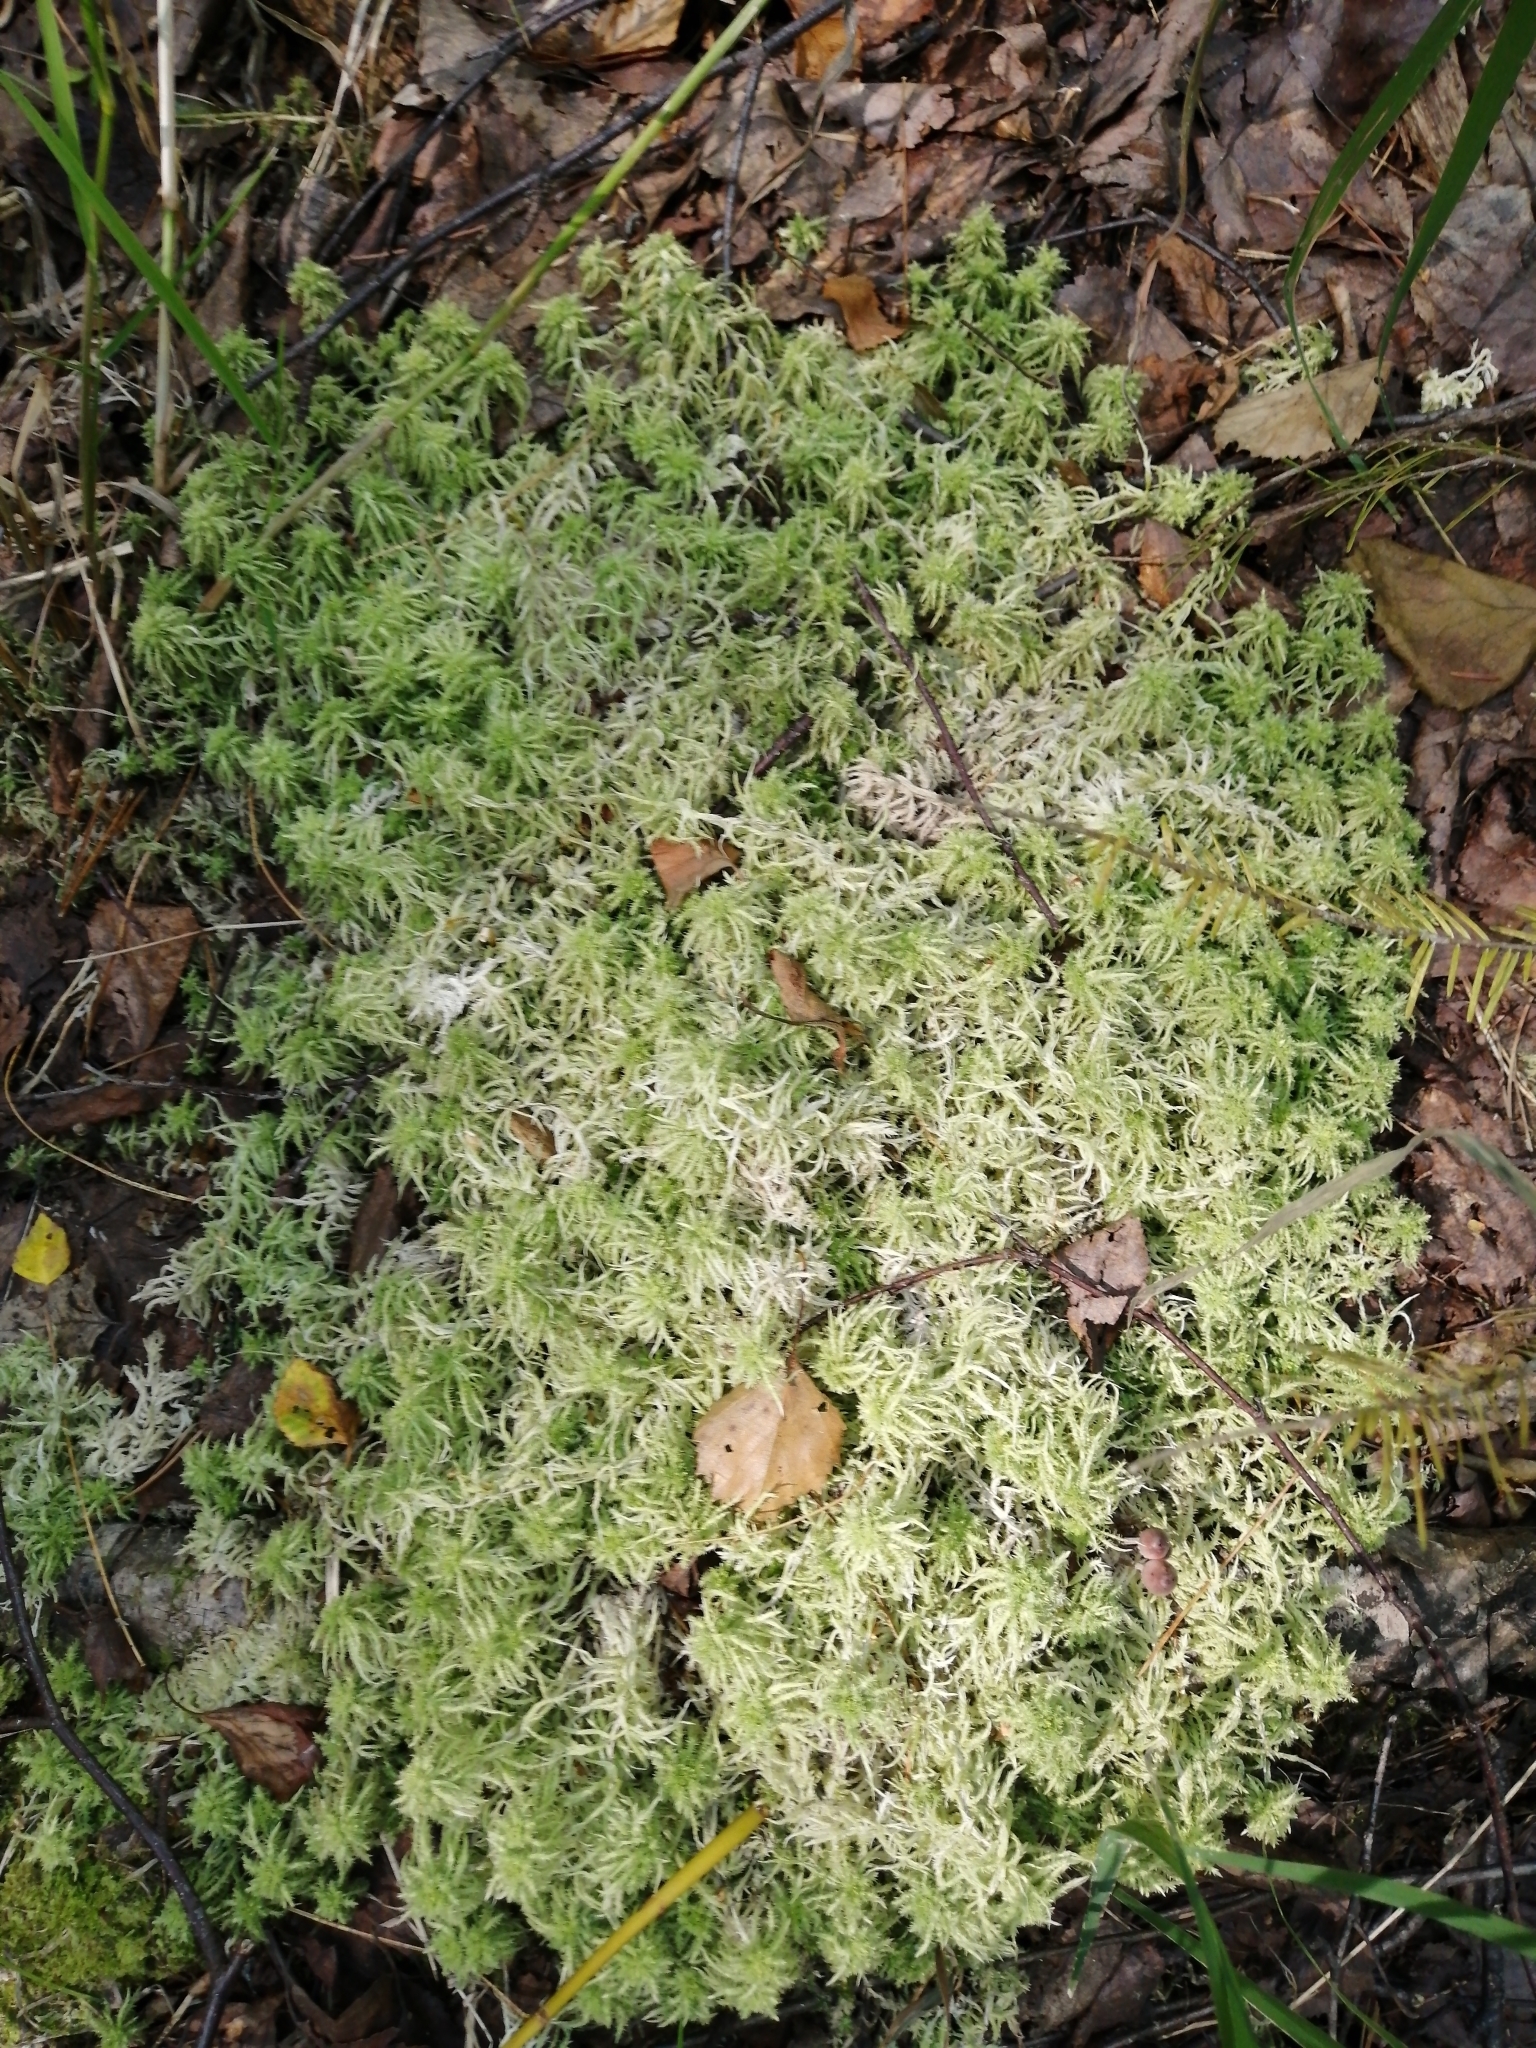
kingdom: Plantae
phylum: Bryophyta
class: Sphagnopsida
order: Sphagnales
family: Sphagnaceae
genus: Sphagnum
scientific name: Sphagnum squarrosum
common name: Shaggy peat moss
